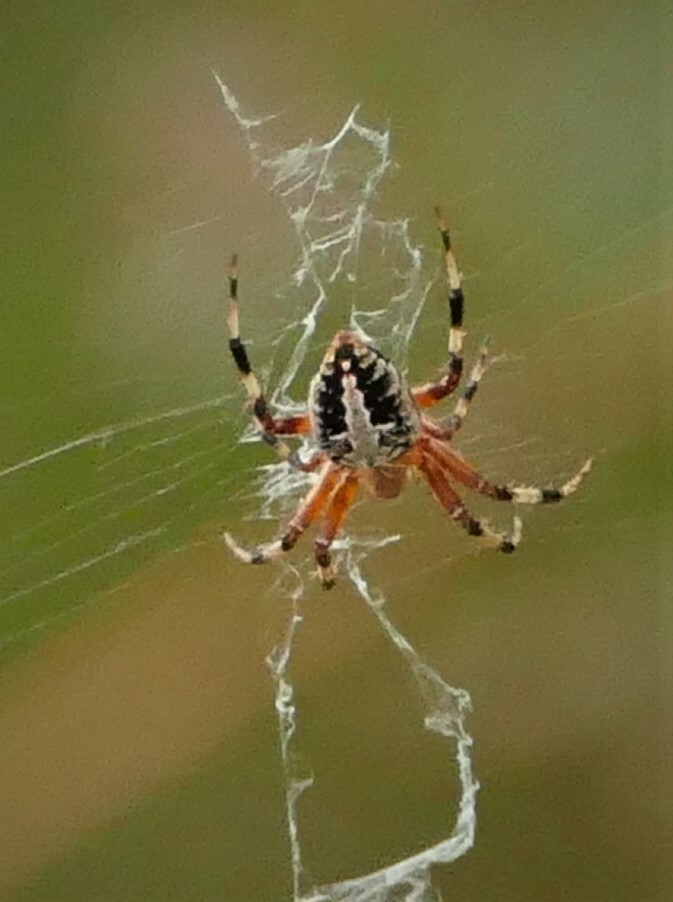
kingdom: Animalia
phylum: Arthropoda
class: Arachnida
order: Araneae
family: Araneidae
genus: Neoscona
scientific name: Neoscona domiciliorum
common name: Red-femured spotted orbweaver
